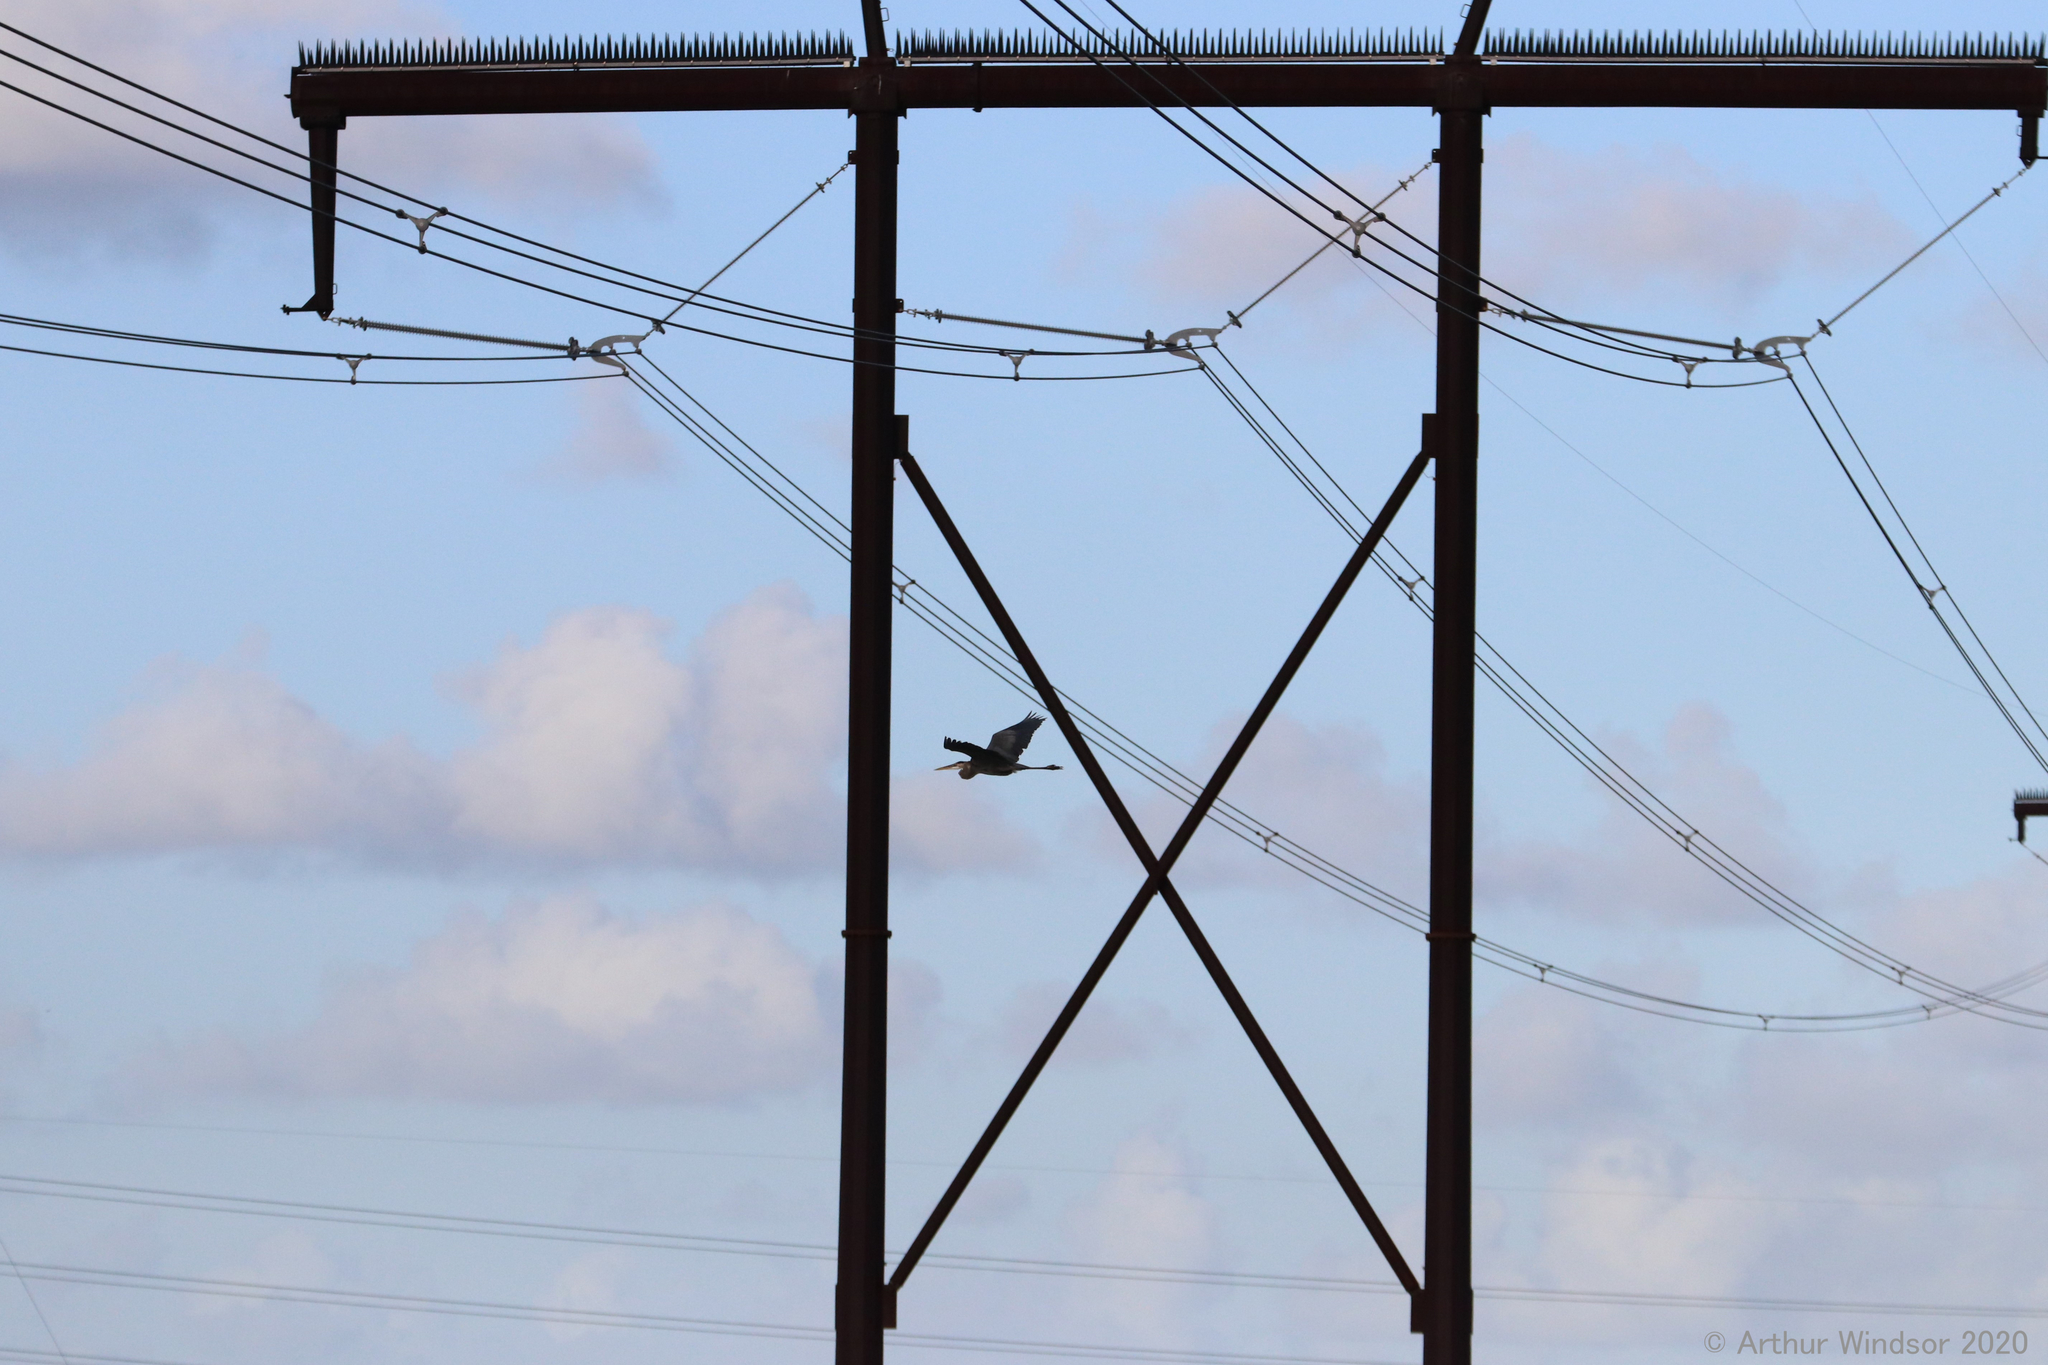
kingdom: Animalia
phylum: Chordata
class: Aves
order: Pelecaniformes
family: Ardeidae
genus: Ardea
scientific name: Ardea herodias
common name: Great blue heron
